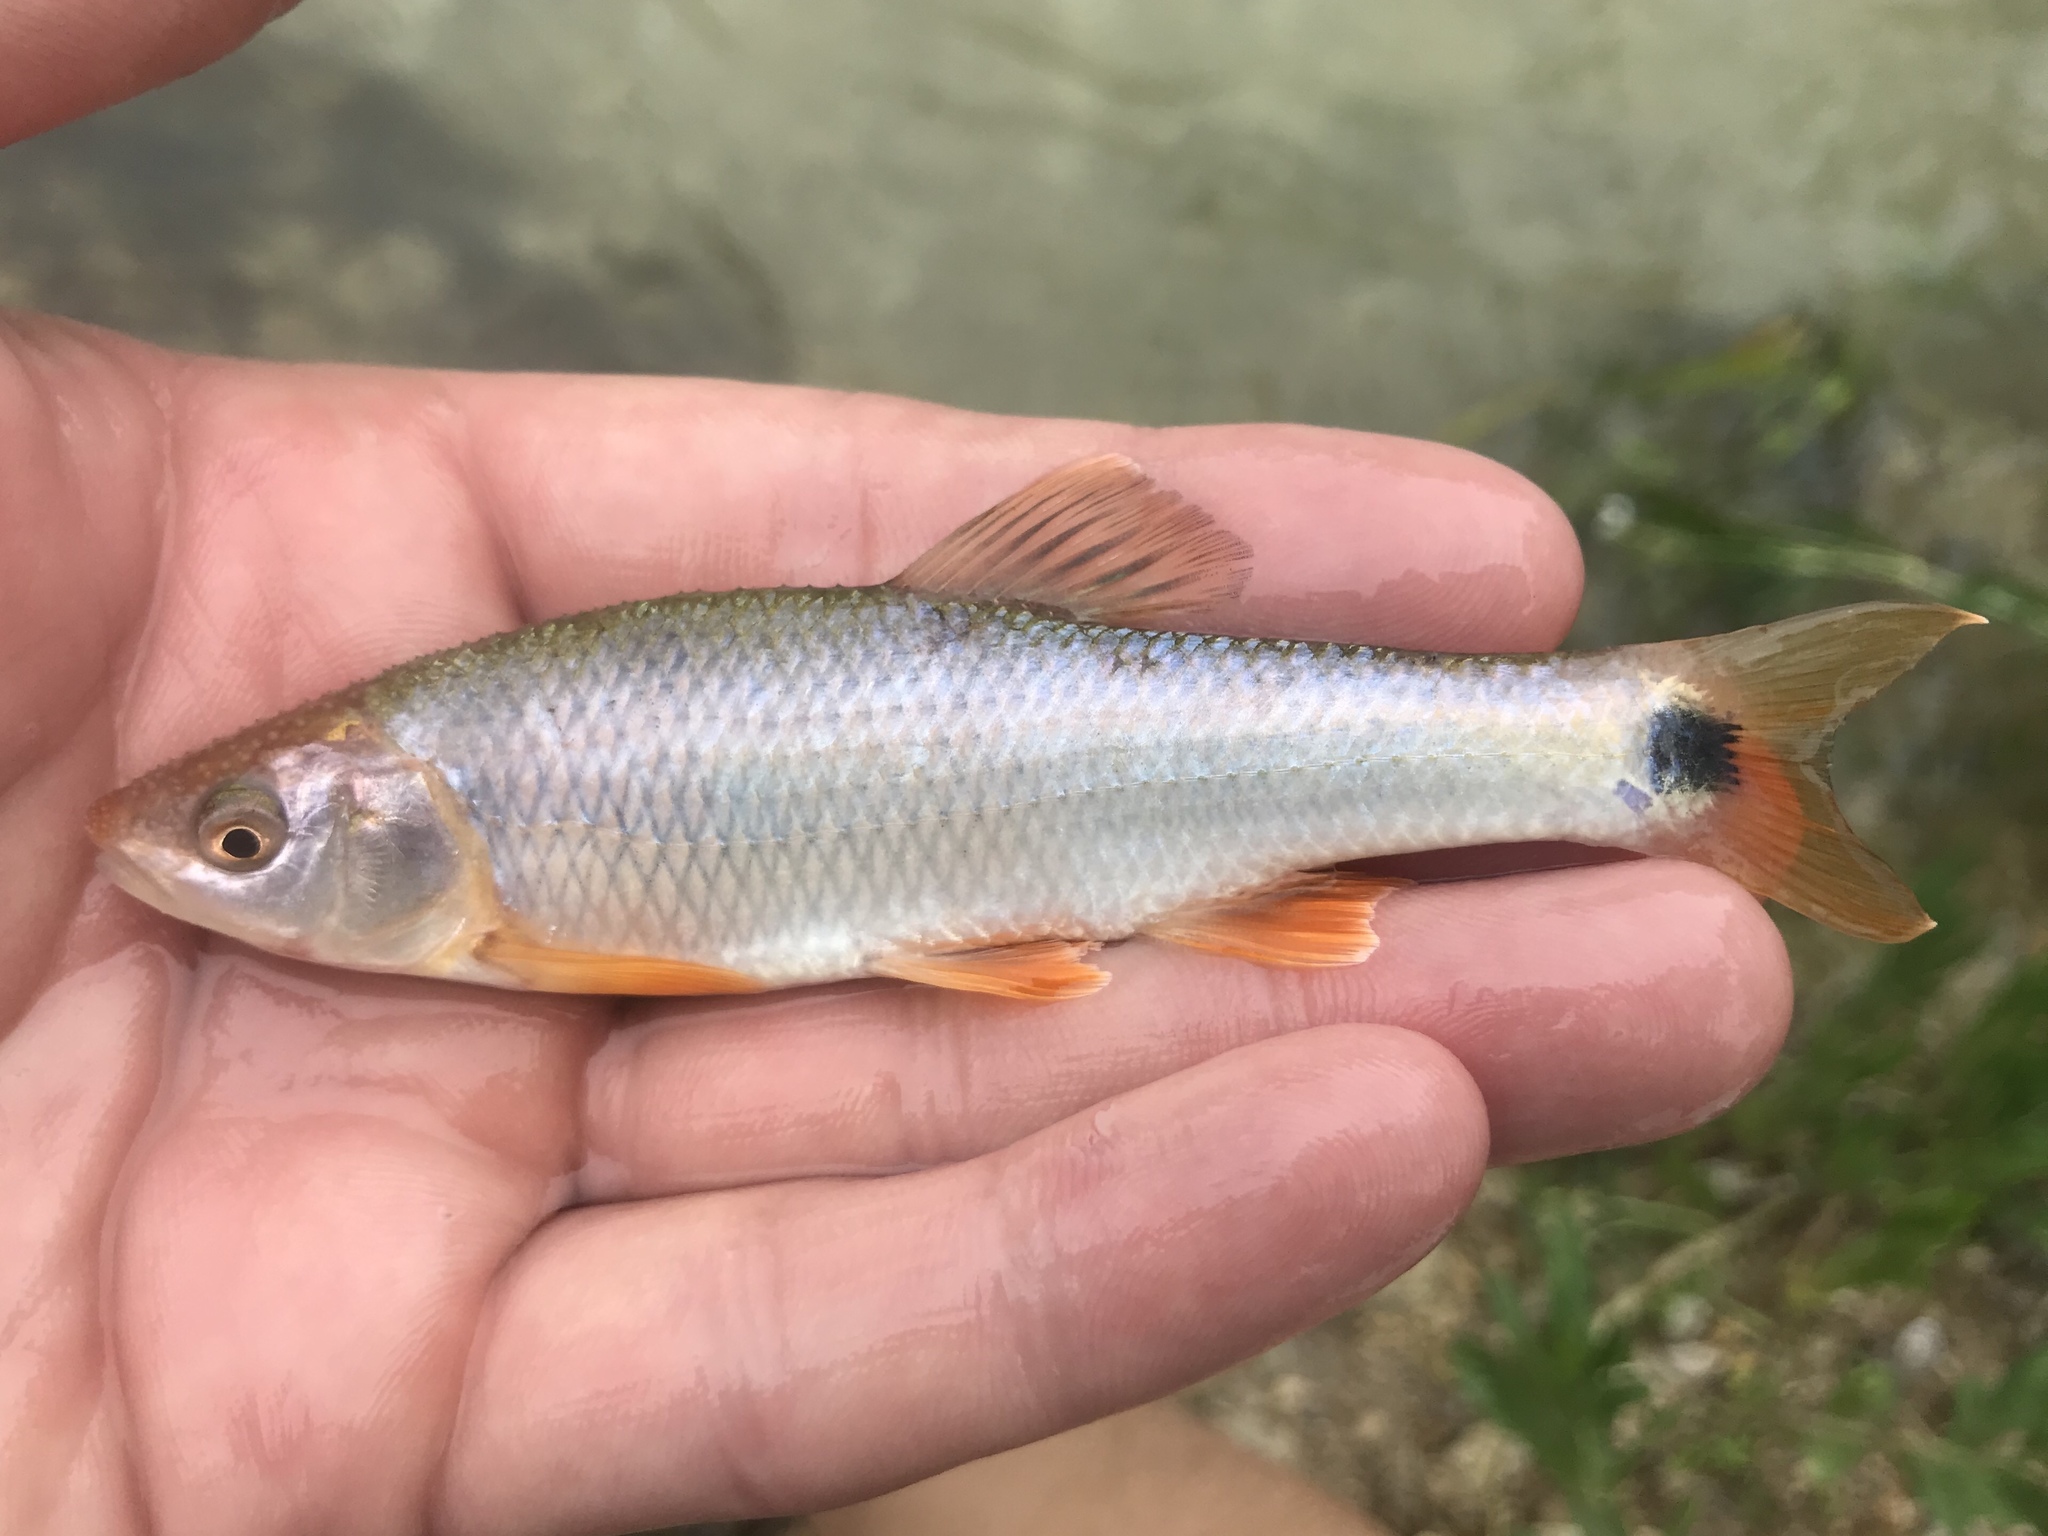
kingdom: Animalia
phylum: Chordata
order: Cypriniformes
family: Cyprinidae
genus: Cyprinella
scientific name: Cyprinella venusta
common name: Blacktail shiner
